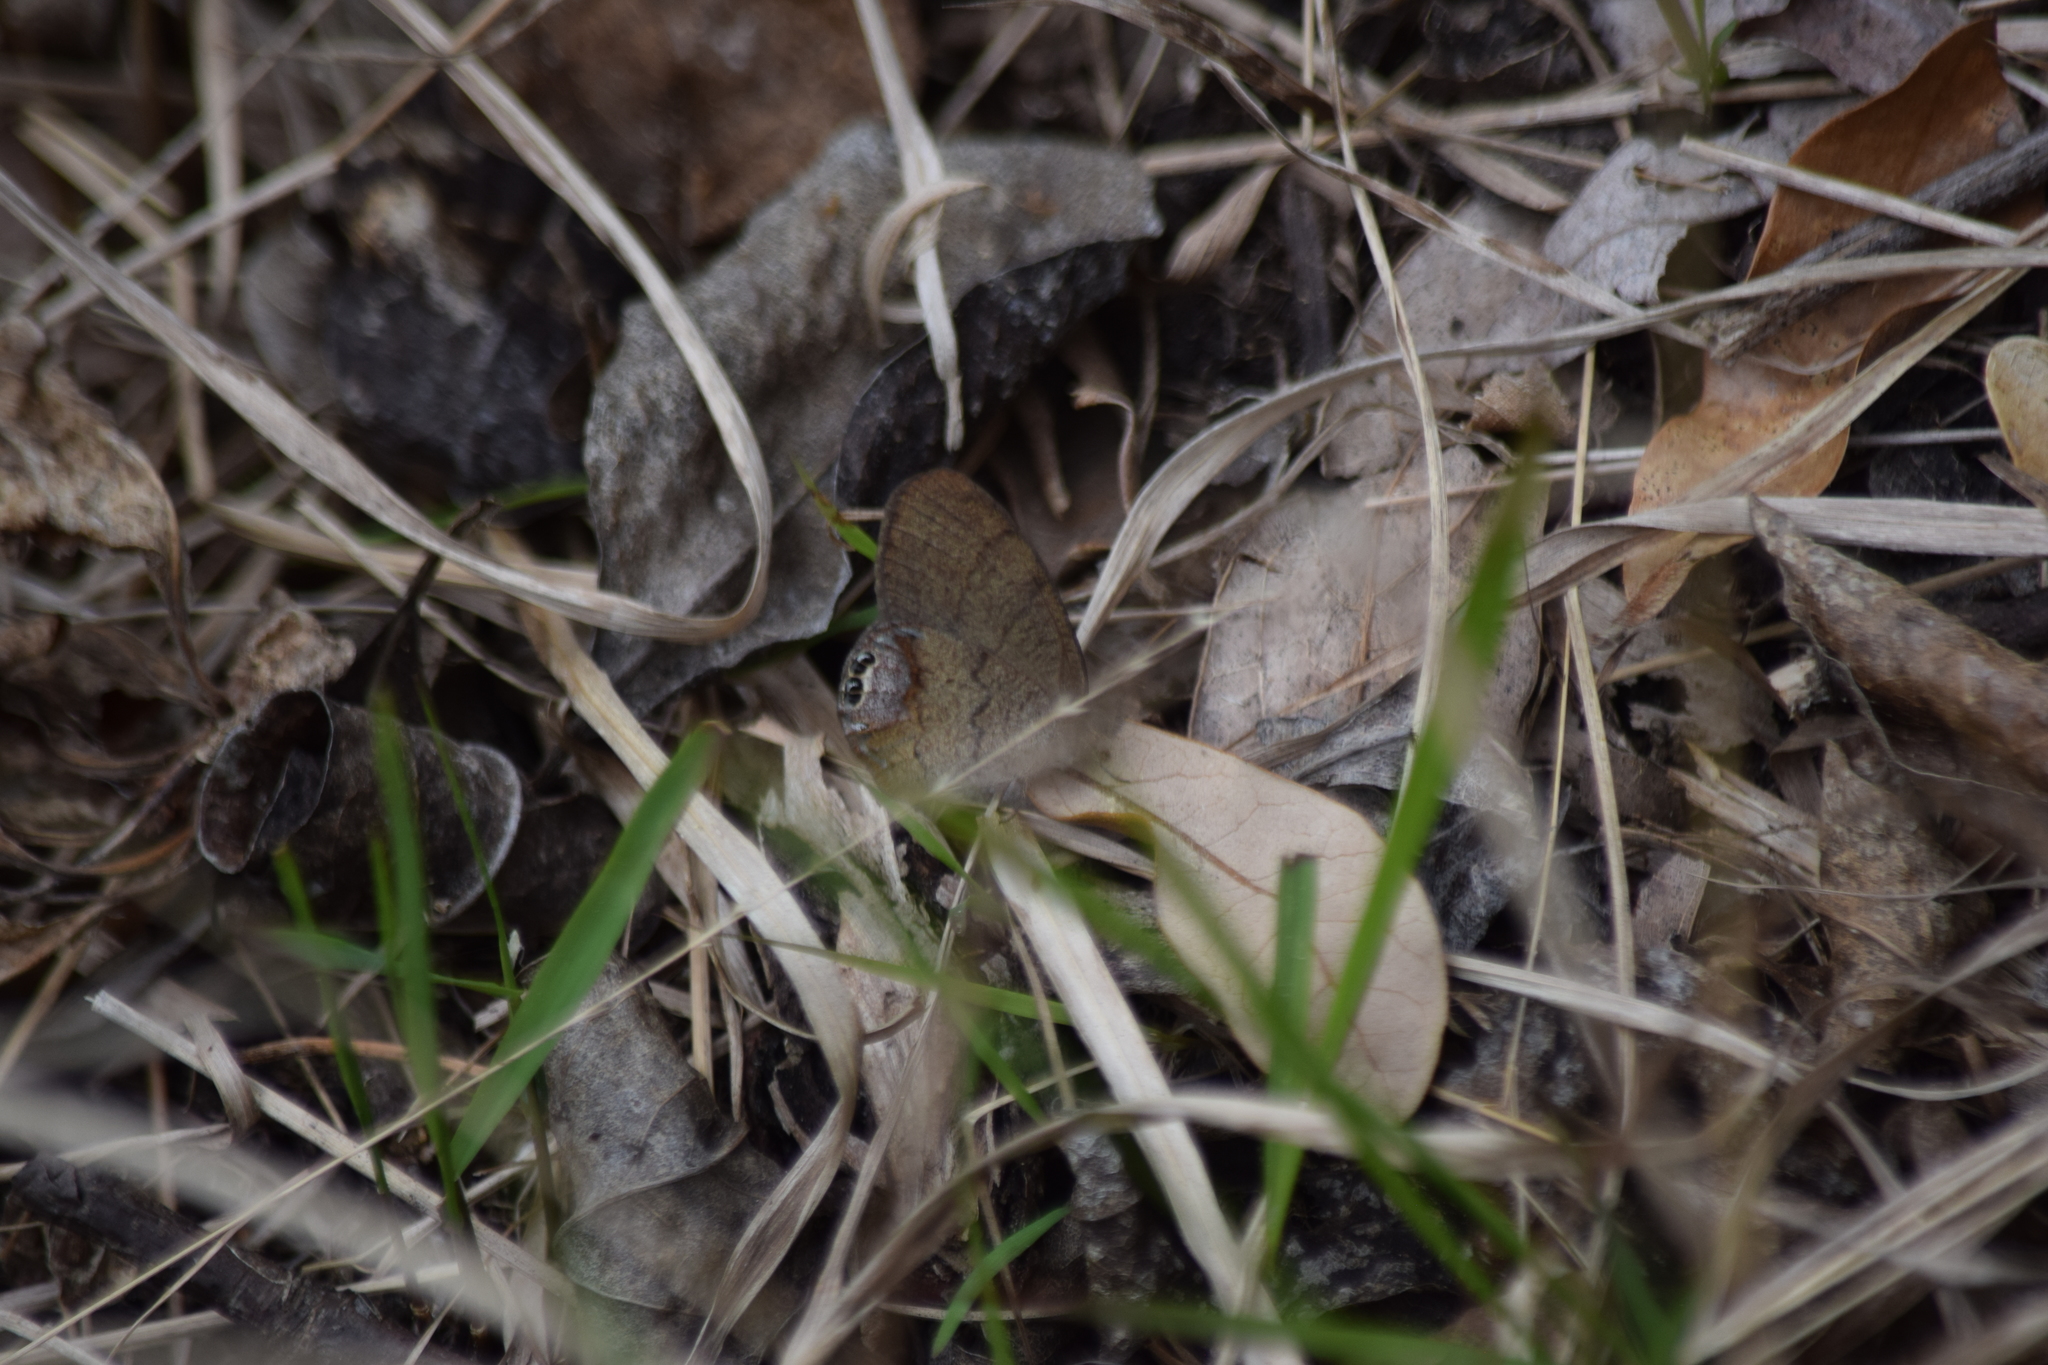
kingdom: Animalia
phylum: Arthropoda
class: Insecta
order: Lepidoptera
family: Nymphalidae
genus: Euptychia
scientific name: Euptychia cornelius
